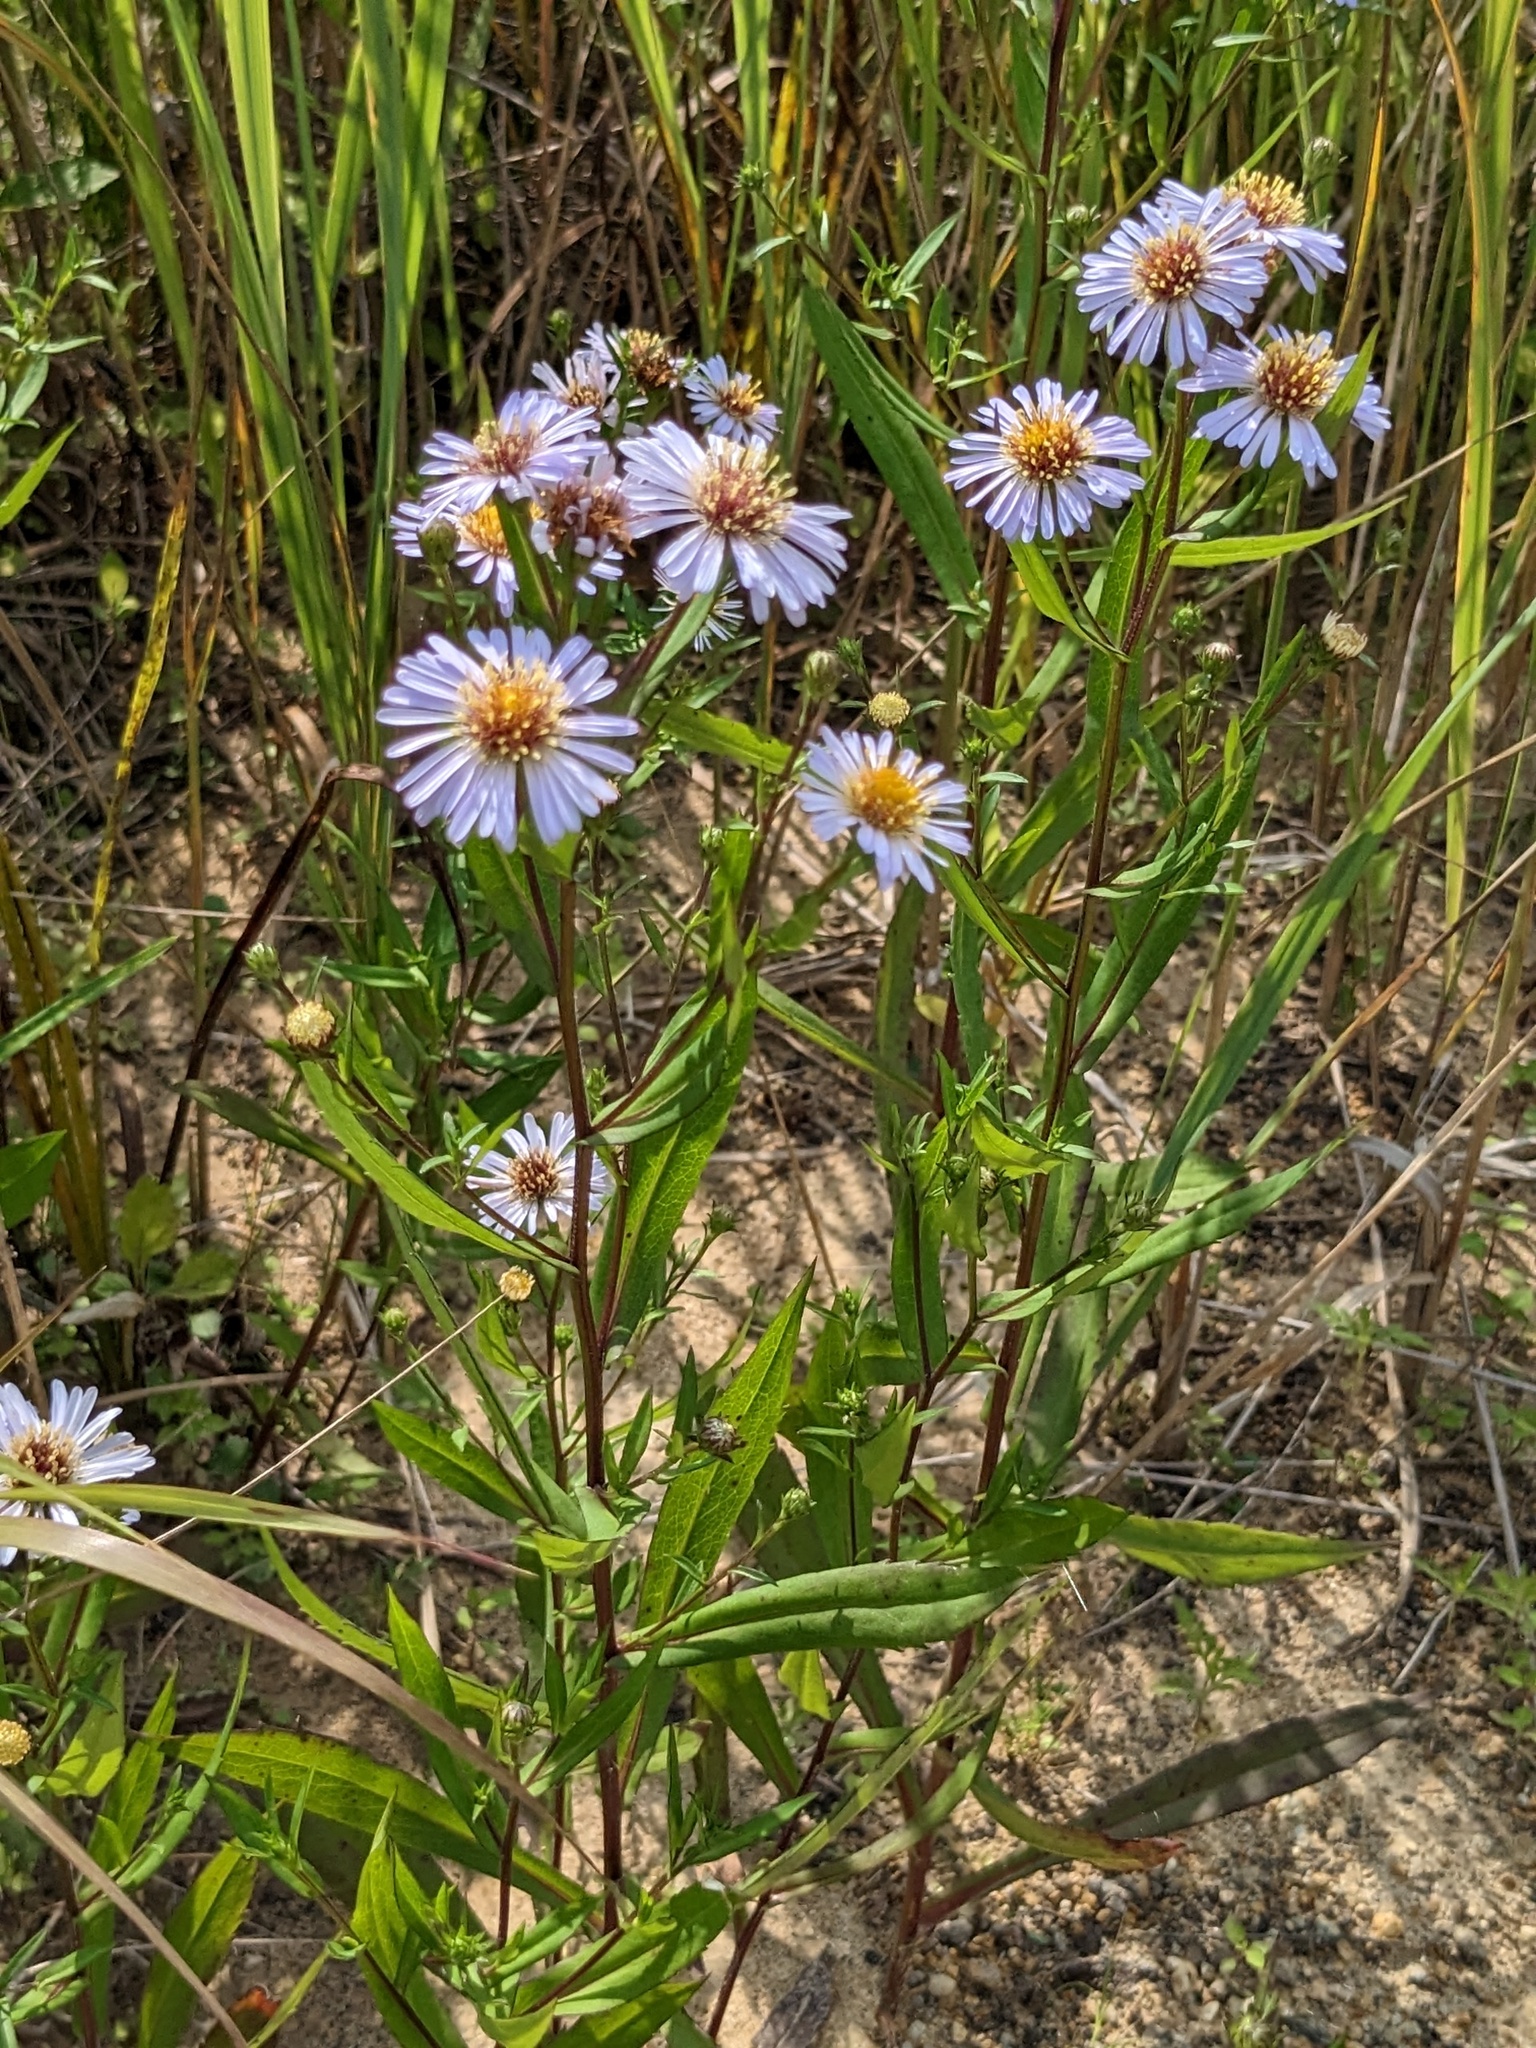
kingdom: Plantae
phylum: Tracheophyta
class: Magnoliopsida
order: Asterales
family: Asteraceae
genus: Symphyotrichum
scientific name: Symphyotrichum novi-belgii
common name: Michaelmas daisy
